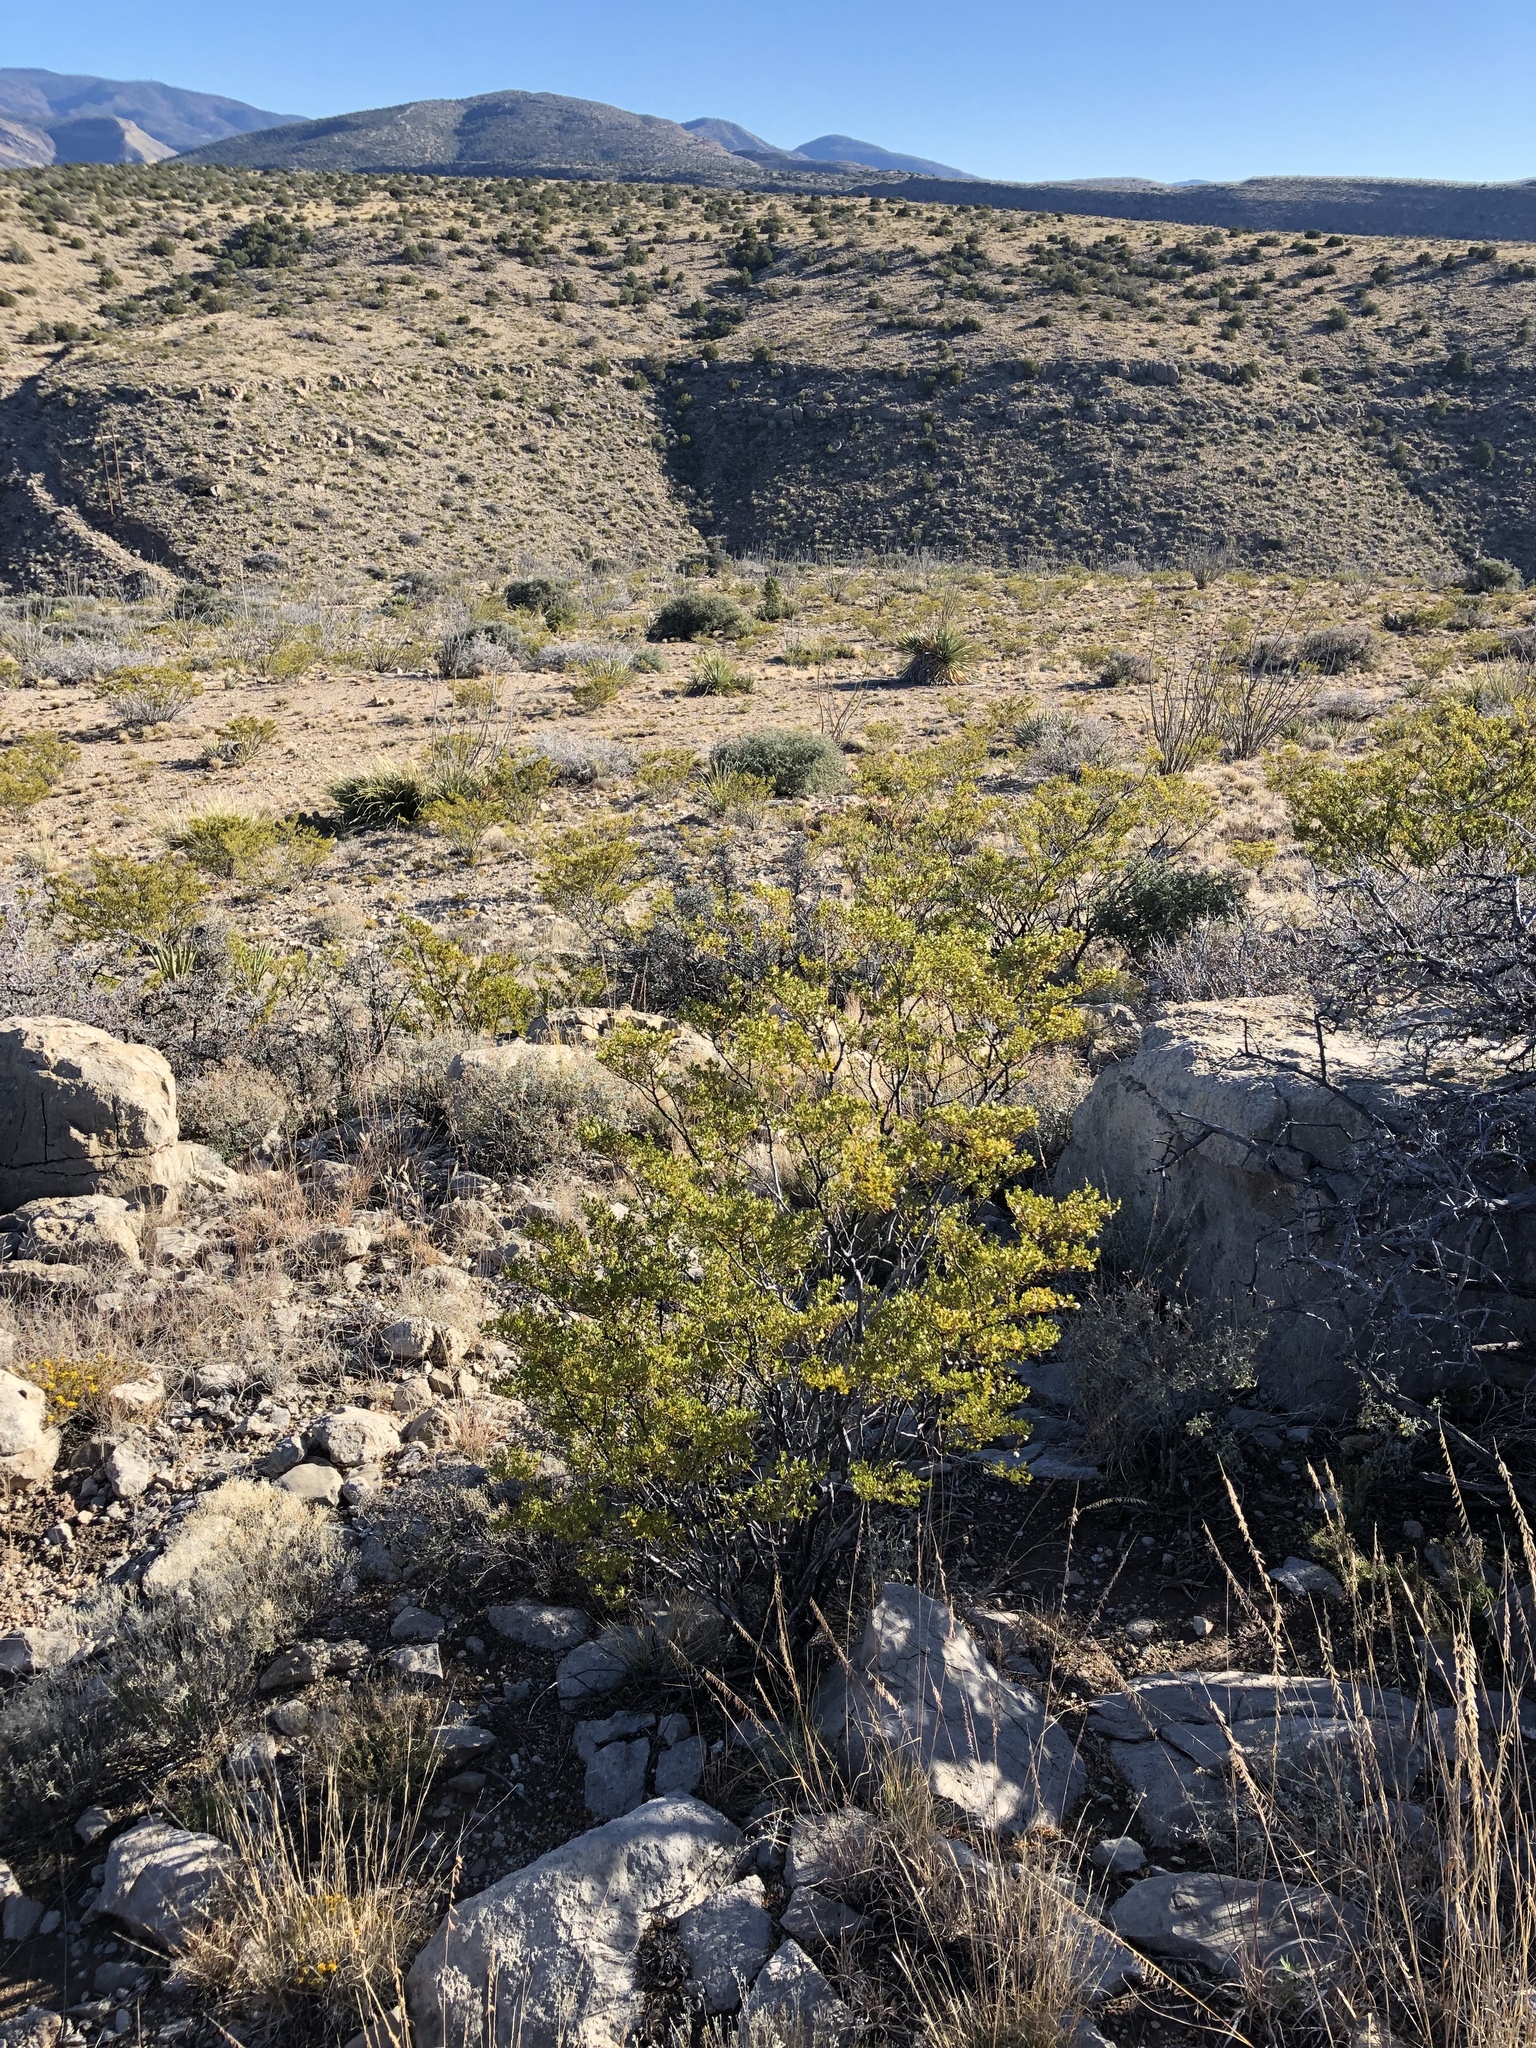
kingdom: Plantae
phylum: Tracheophyta
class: Magnoliopsida
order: Zygophyllales
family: Zygophyllaceae
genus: Larrea
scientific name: Larrea tridentata
